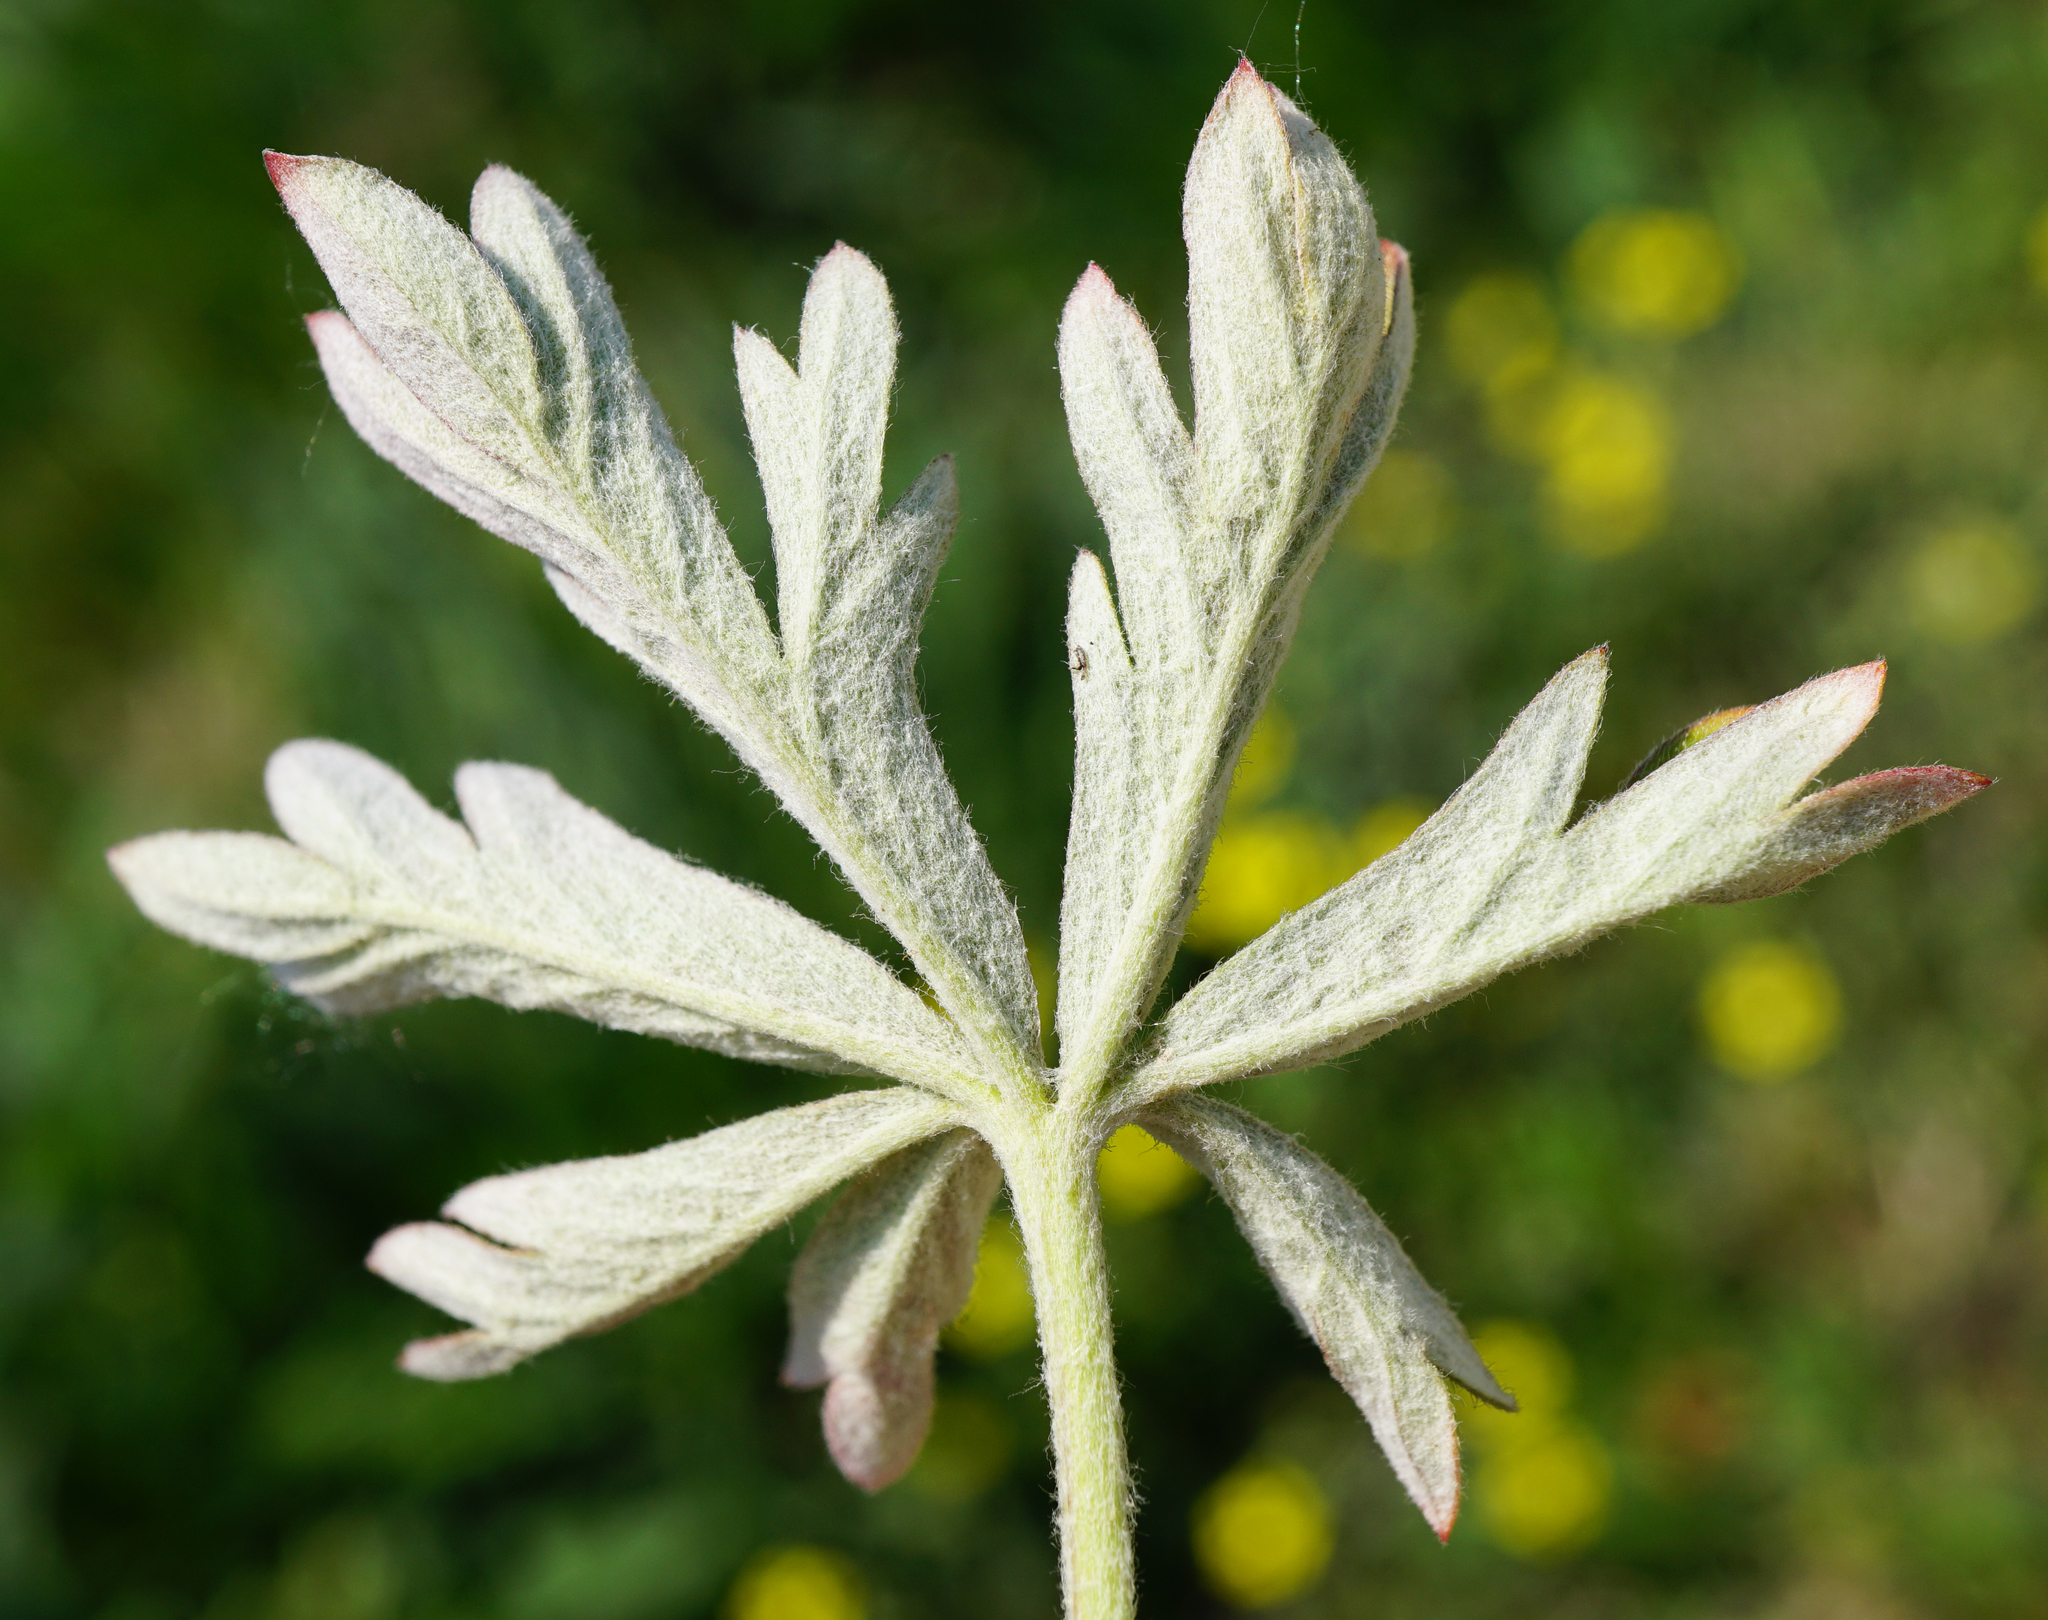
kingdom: Plantae
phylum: Tracheophyta
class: Magnoliopsida
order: Rosales
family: Rosaceae
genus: Potentilla
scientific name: Potentilla argentea
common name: Hoary cinquefoil
